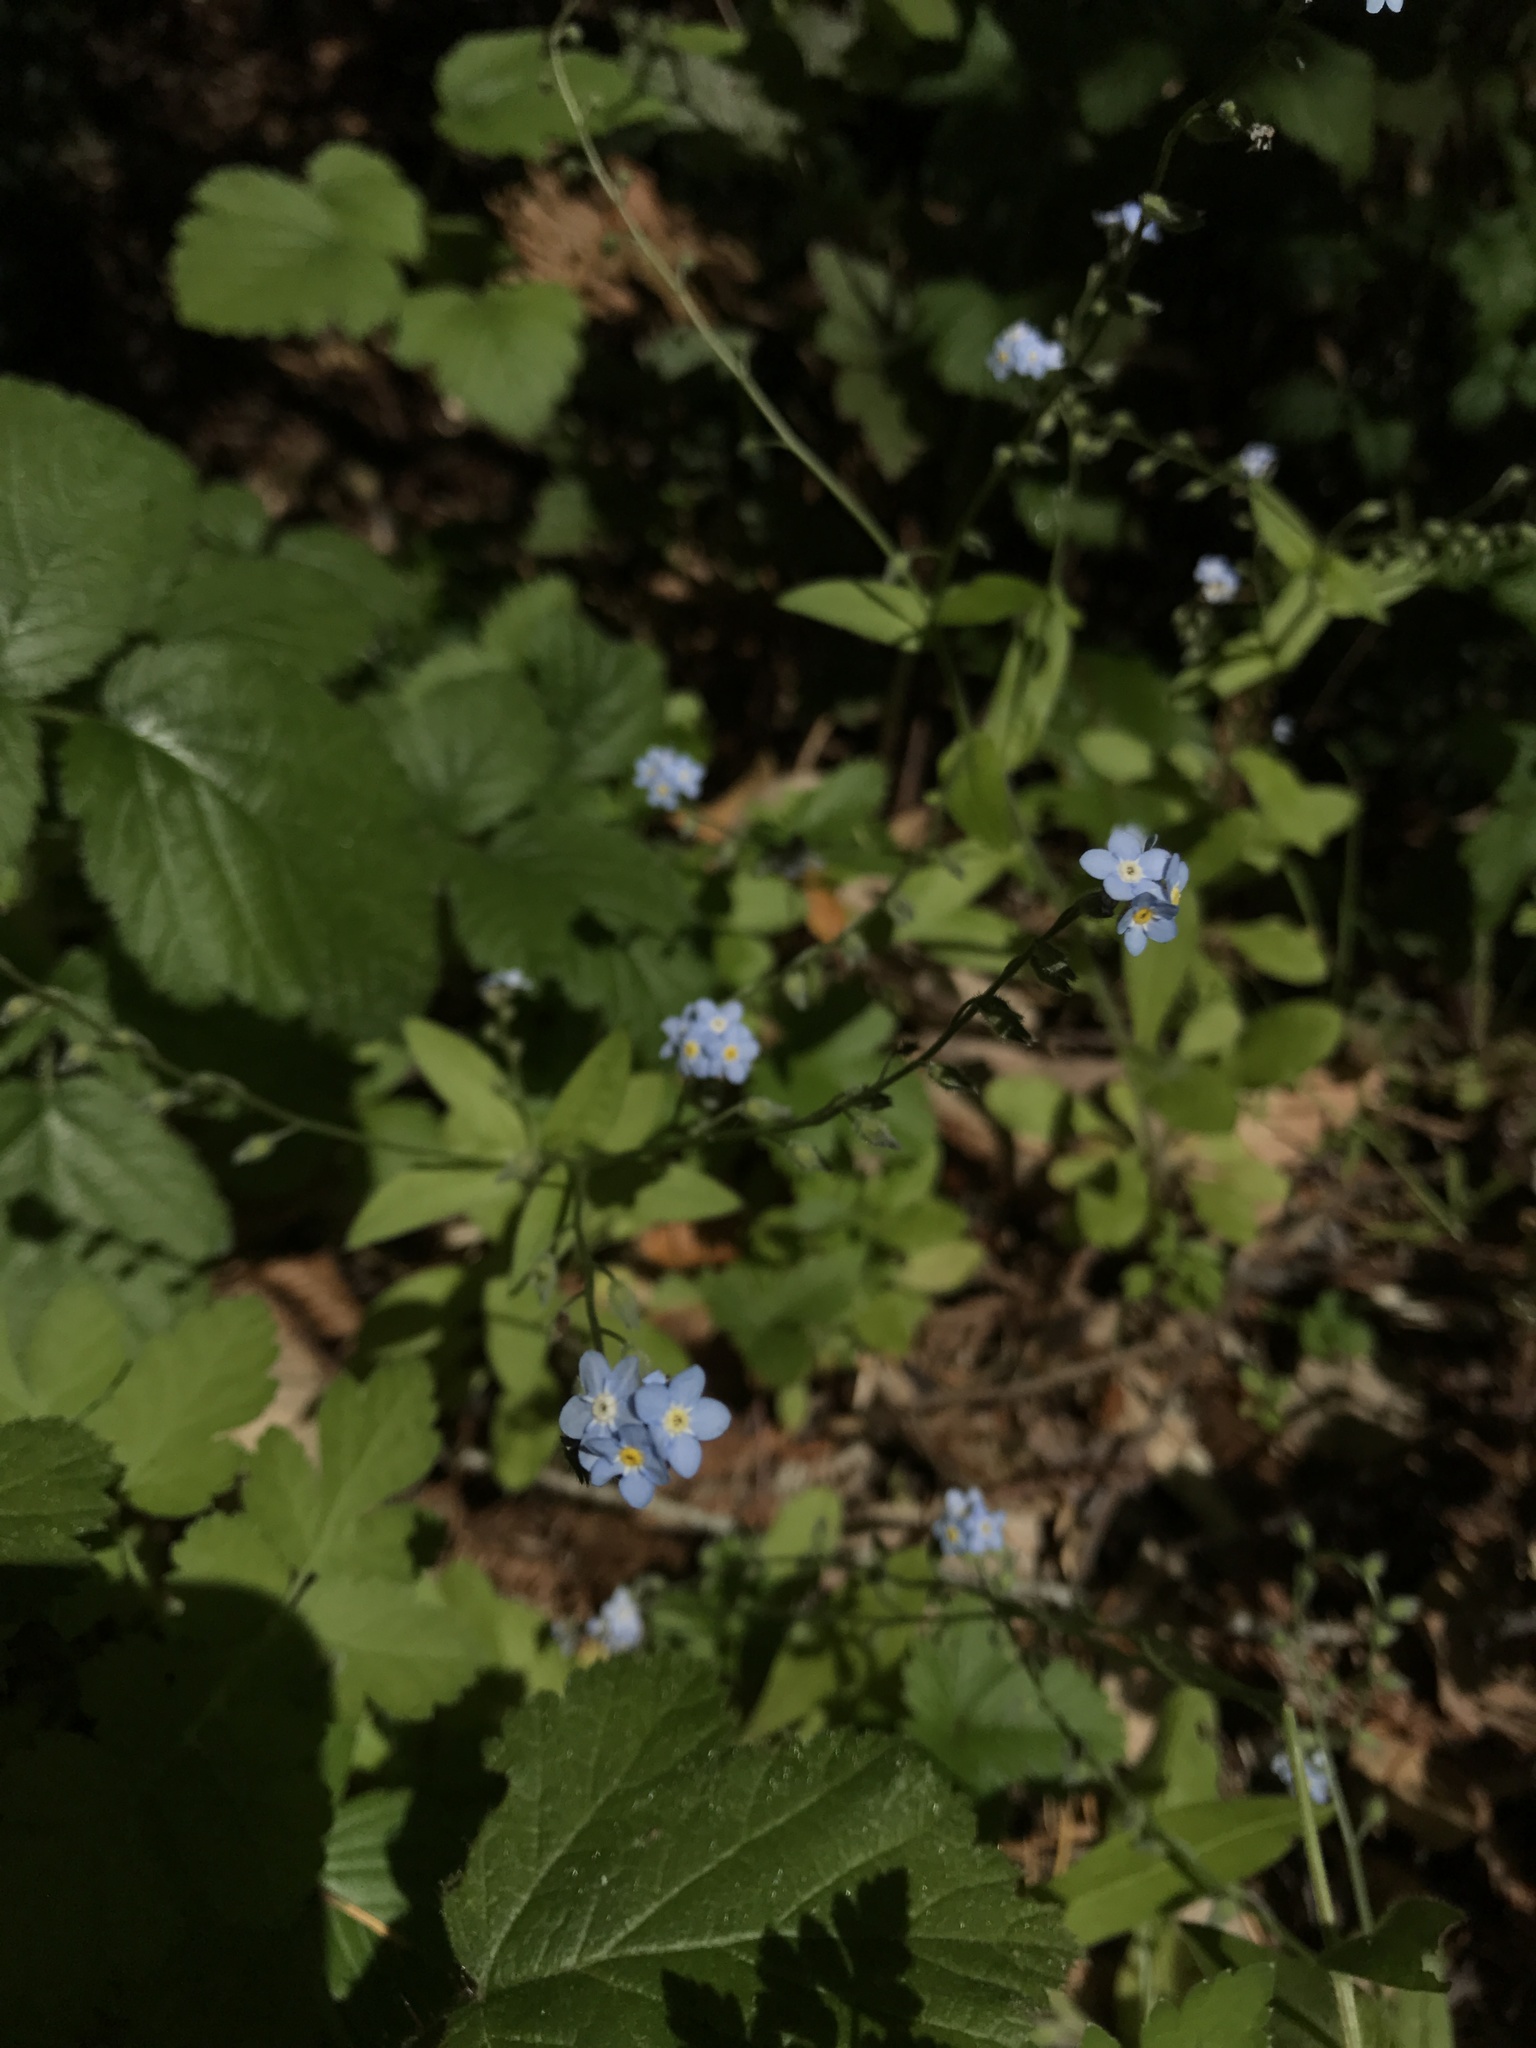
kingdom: Plantae
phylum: Tracheophyta
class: Magnoliopsida
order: Boraginales
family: Boraginaceae
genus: Myosotis
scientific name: Myosotis latifolia
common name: Broadleaf forget-me-not
